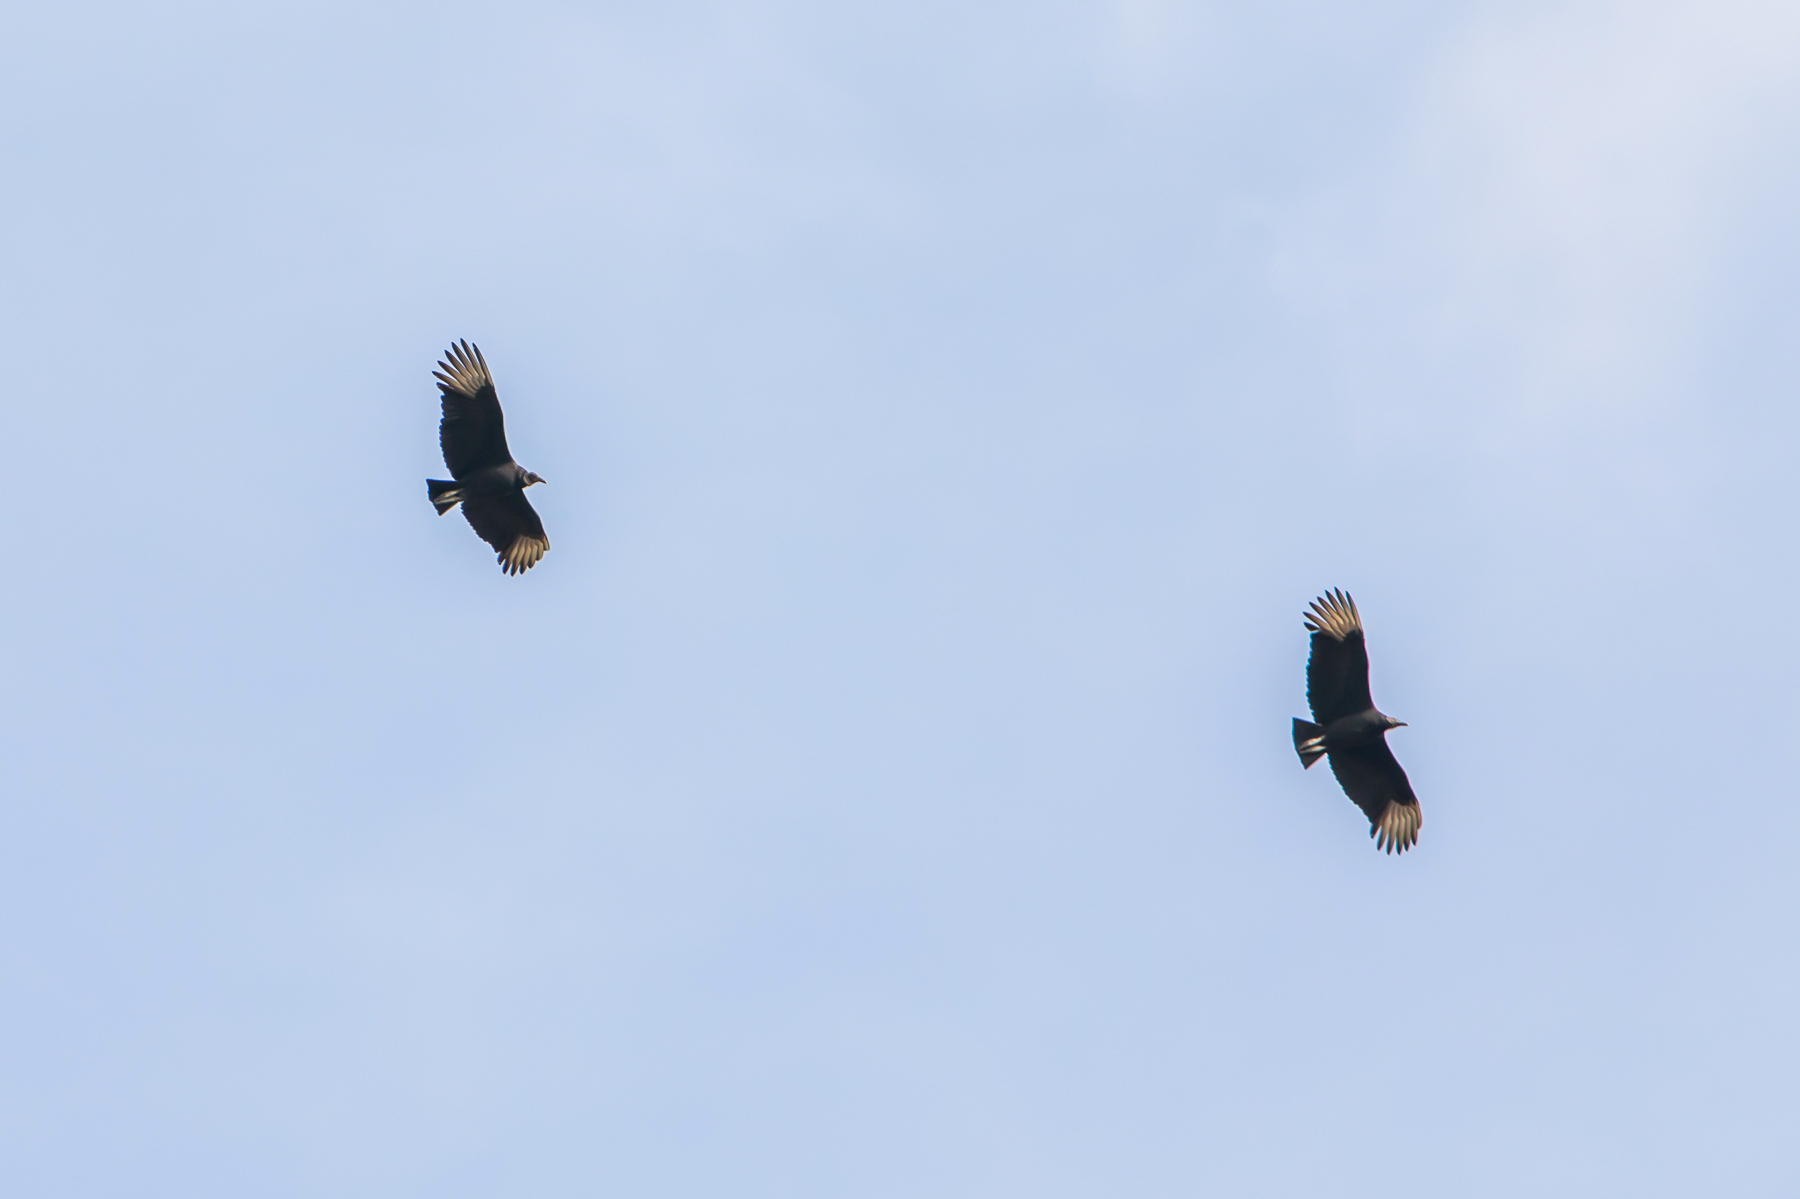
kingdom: Animalia
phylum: Chordata
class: Aves
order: Accipitriformes
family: Cathartidae
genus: Coragyps
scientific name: Coragyps atratus
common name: Black vulture
